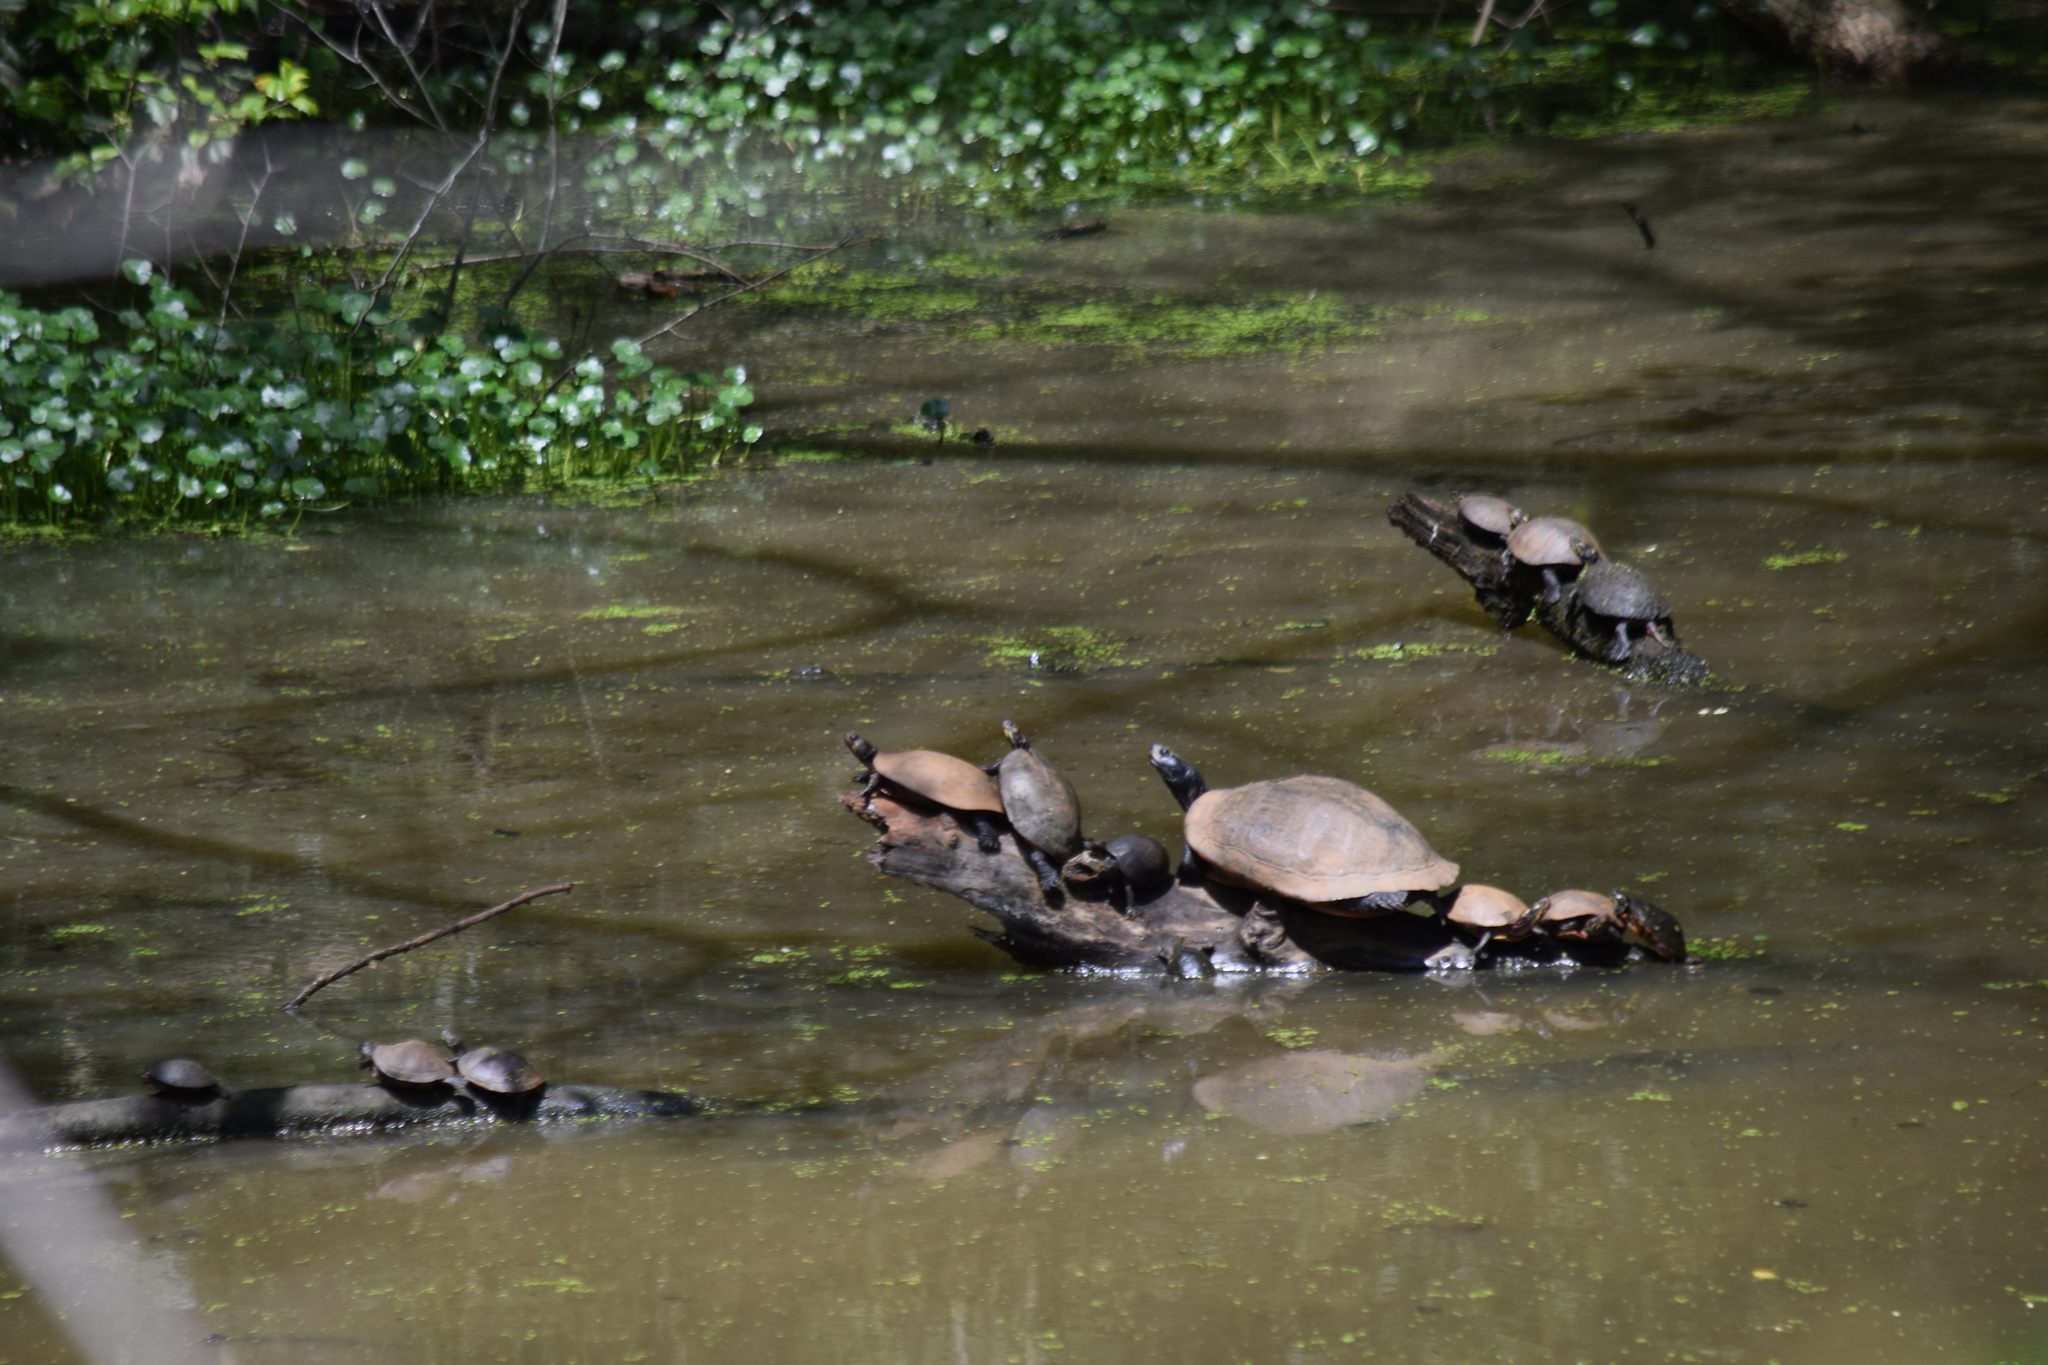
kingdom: Animalia
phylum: Chordata
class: Testudines
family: Emydidae
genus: Pseudemys
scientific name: Pseudemys rubriventris
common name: American red-bellied turtle
